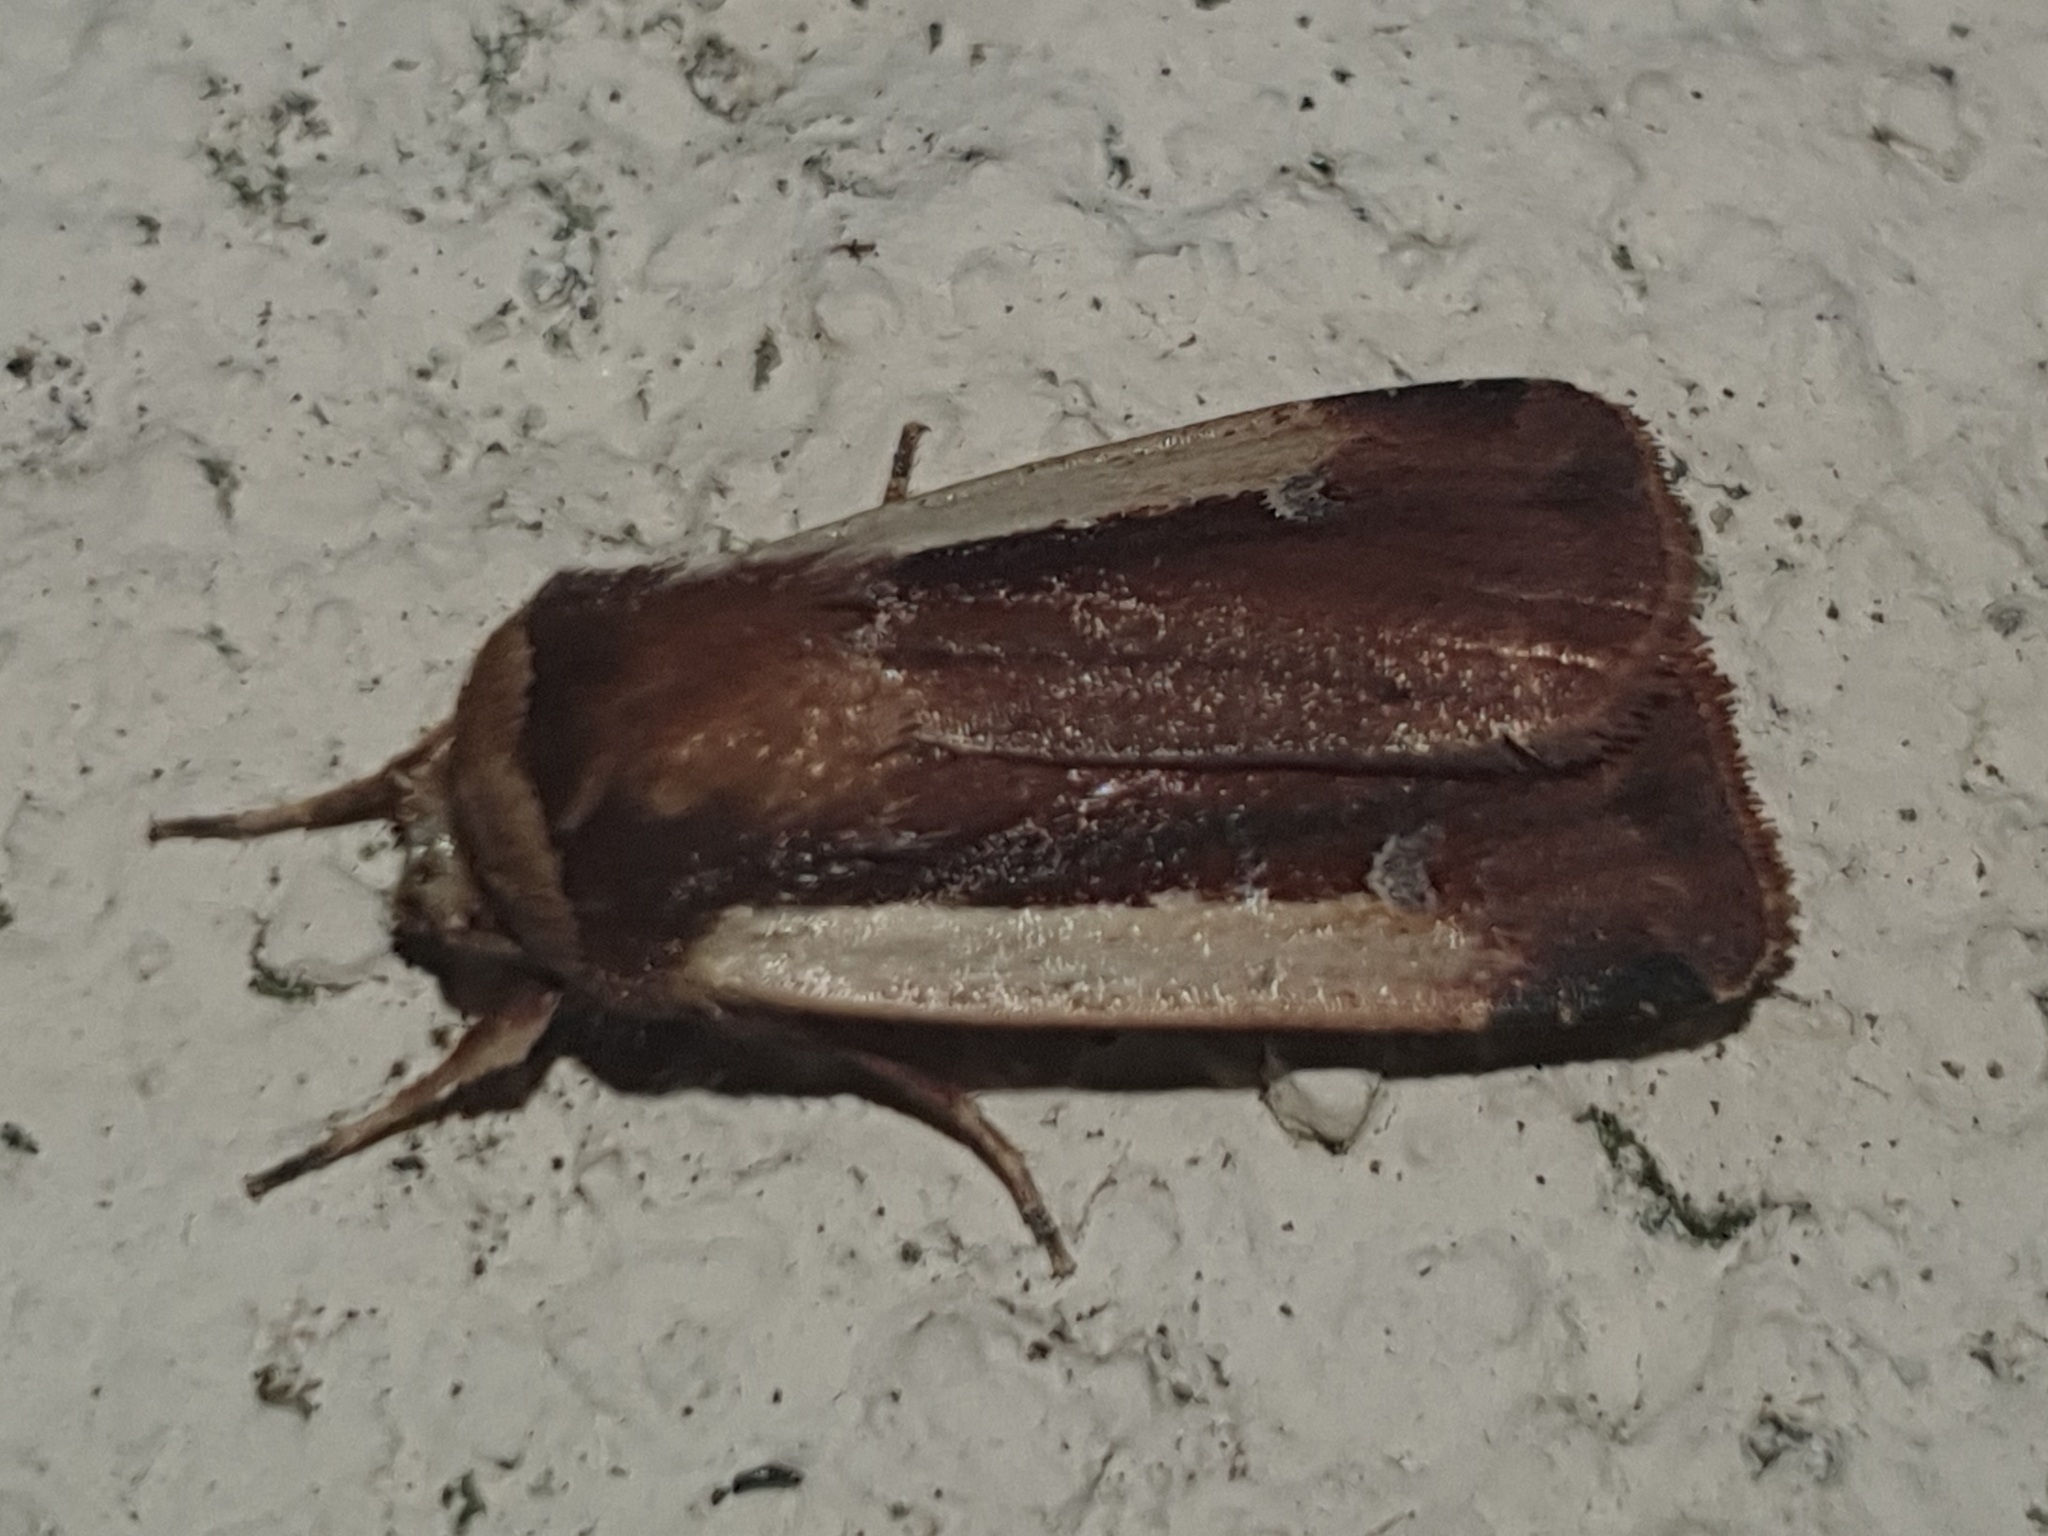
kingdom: Animalia
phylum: Arthropoda
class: Insecta
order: Lepidoptera
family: Noctuidae
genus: Ochropleura
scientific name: Ochropleura plecta
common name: Flame shoulder
